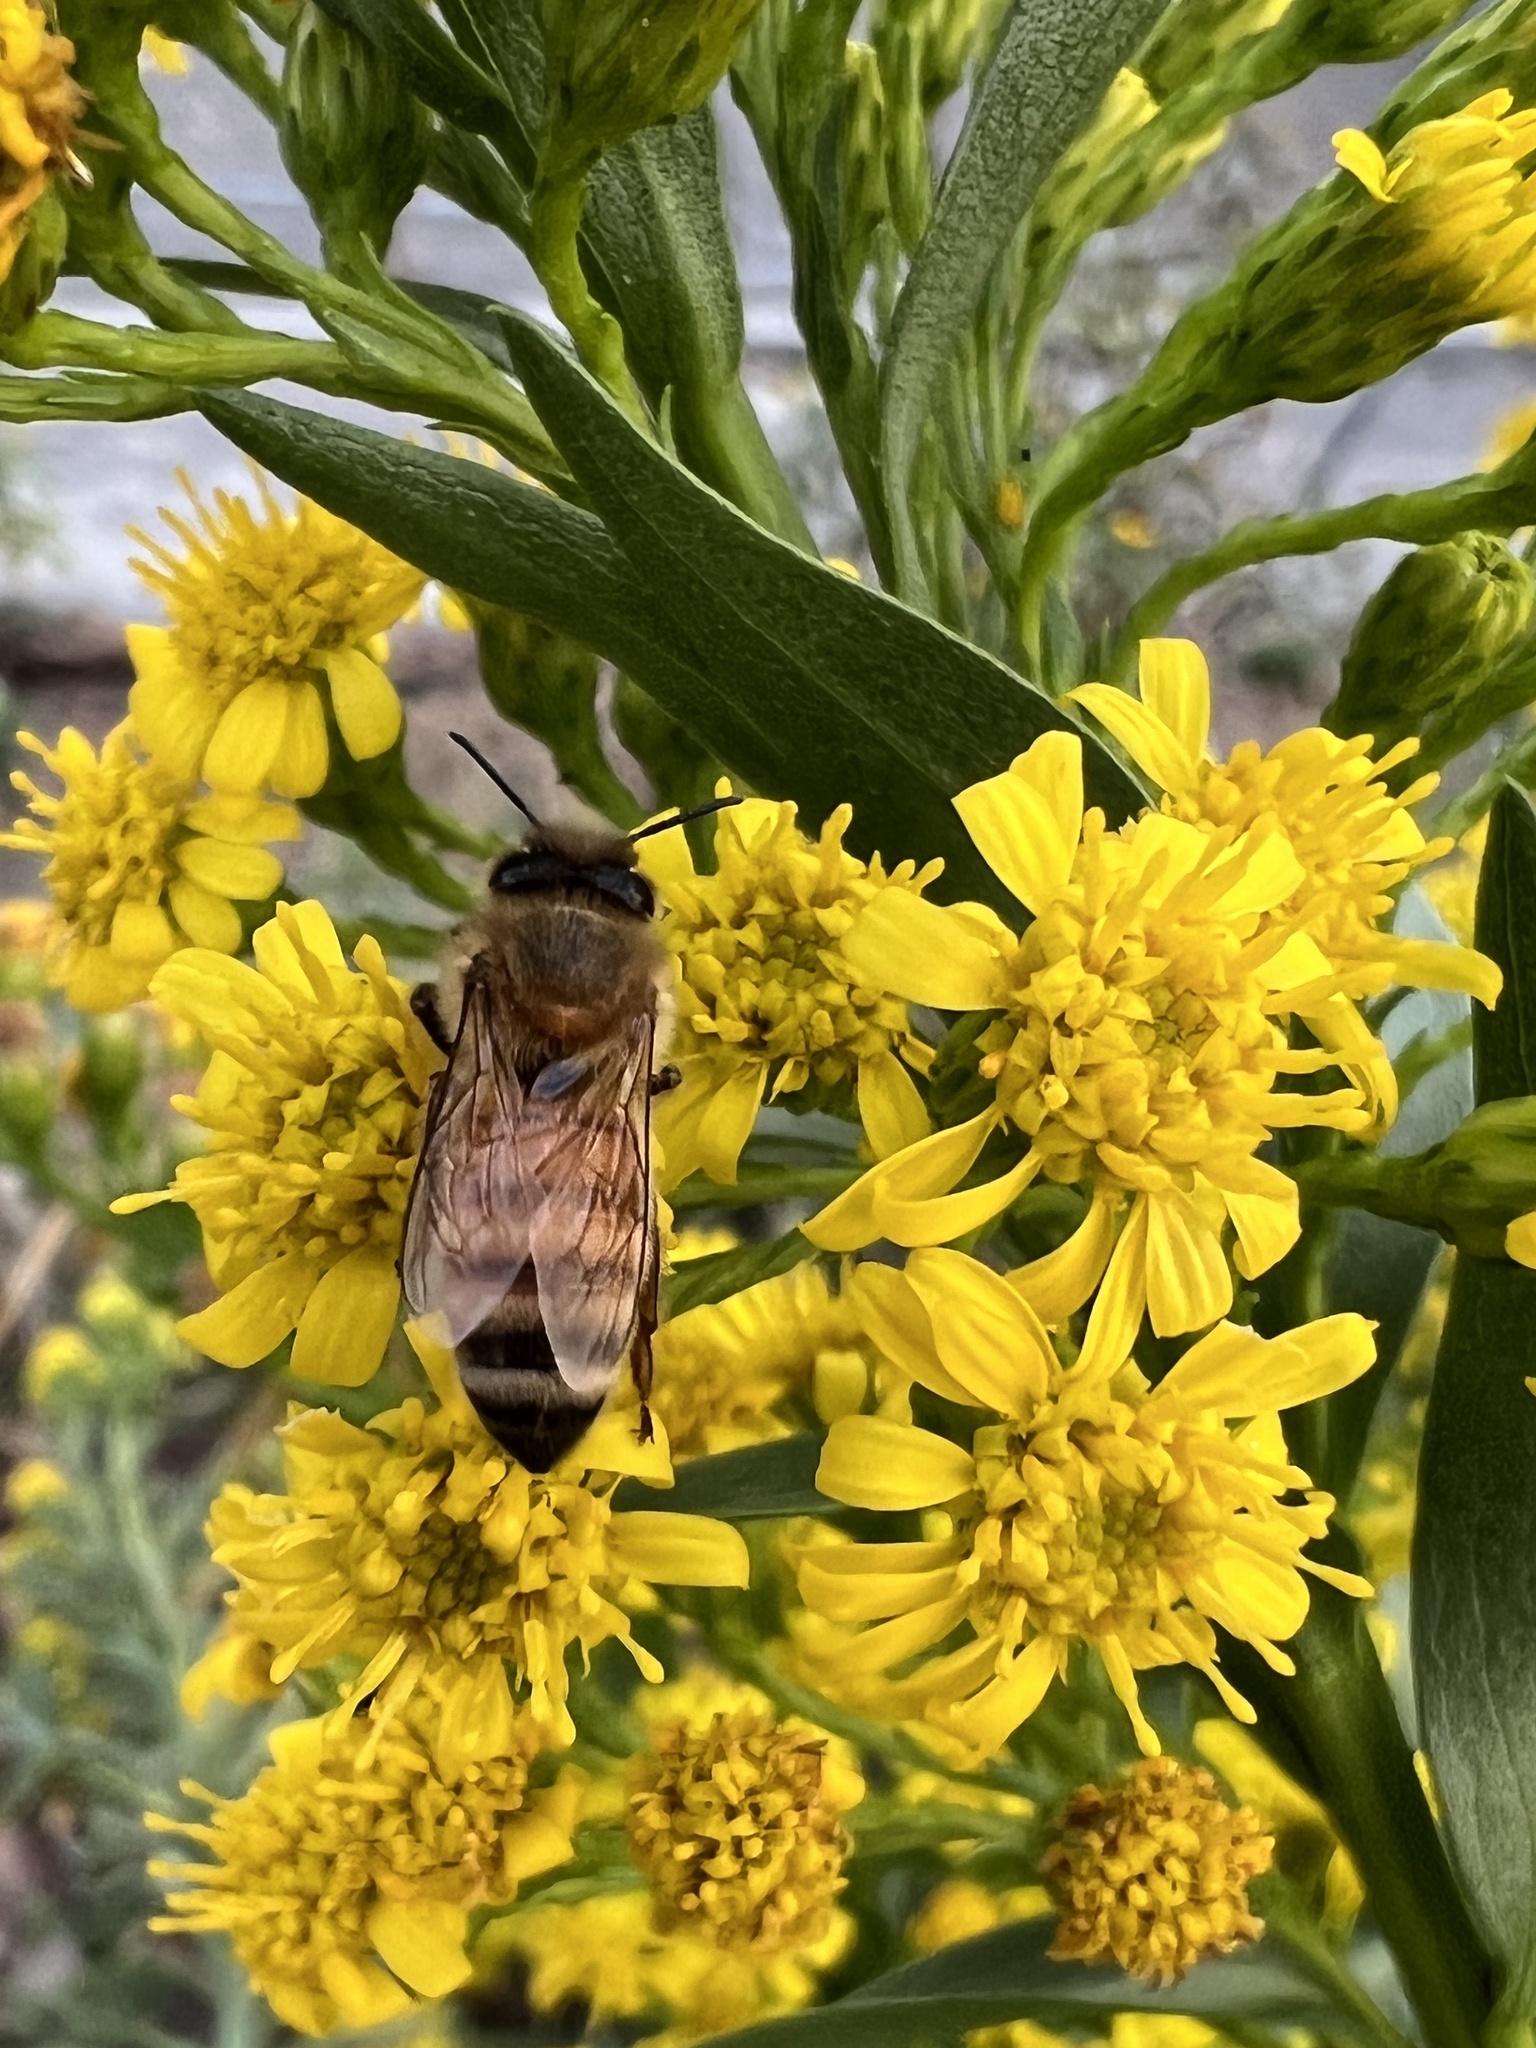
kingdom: Animalia
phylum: Arthropoda
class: Insecta
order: Hymenoptera
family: Apidae
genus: Apis
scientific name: Apis mellifera
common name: Honey bee
